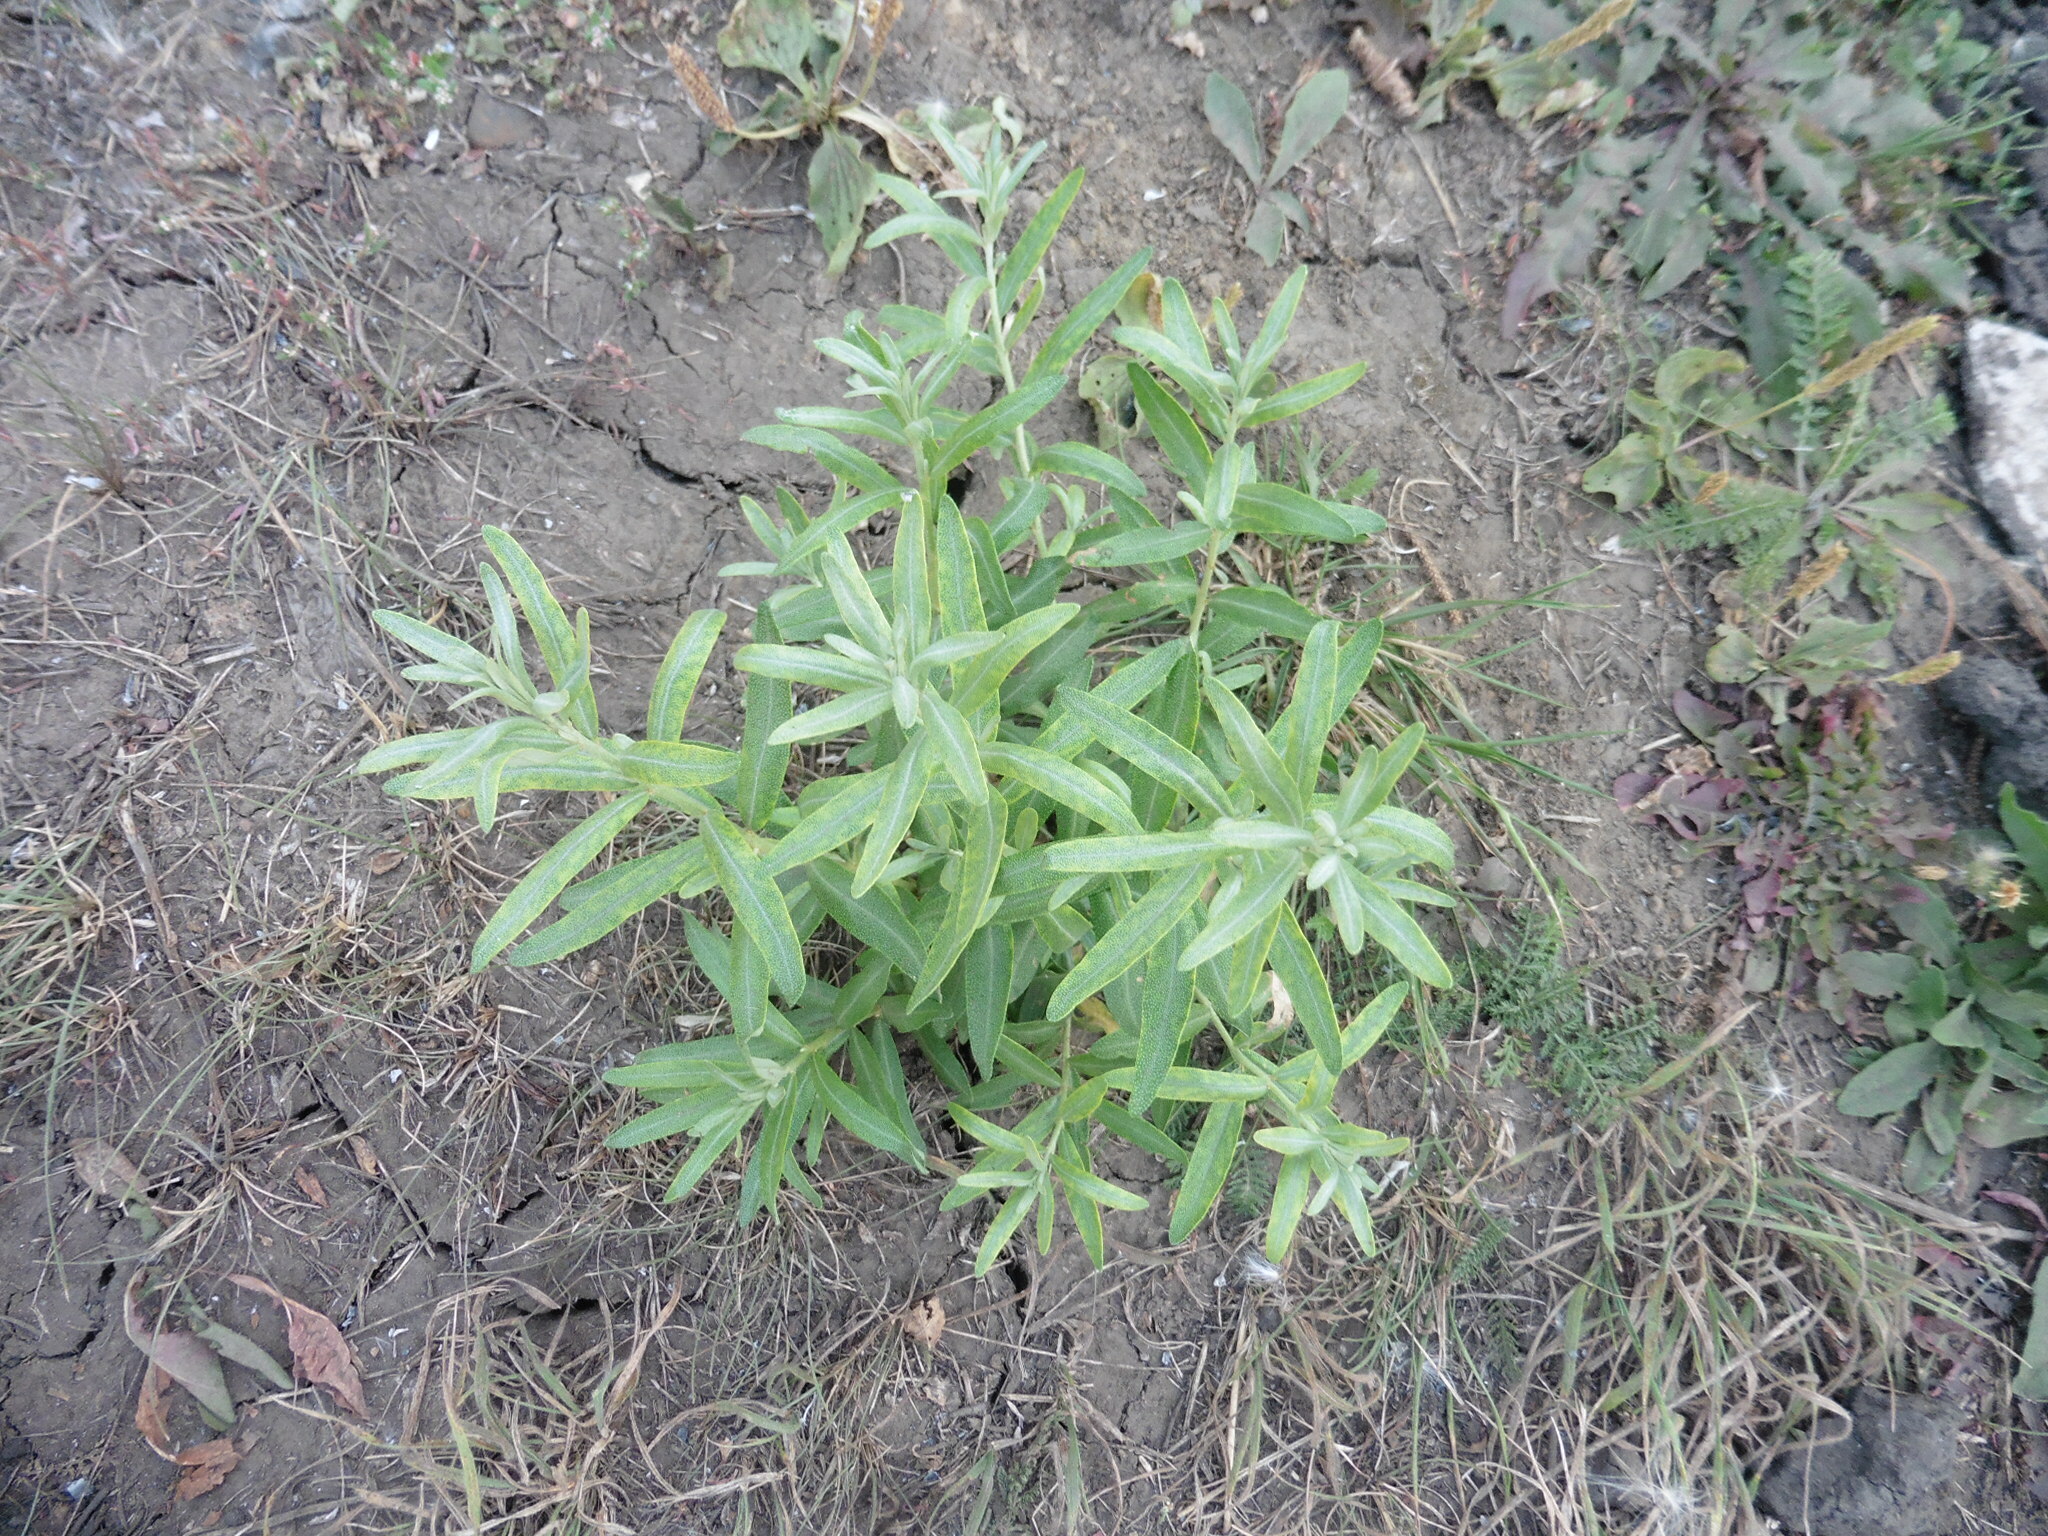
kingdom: Plantae
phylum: Tracheophyta
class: Magnoliopsida
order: Rosales
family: Elaeagnaceae
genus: Hippophae
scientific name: Hippophae rhamnoides
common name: Sea-buckthorn
